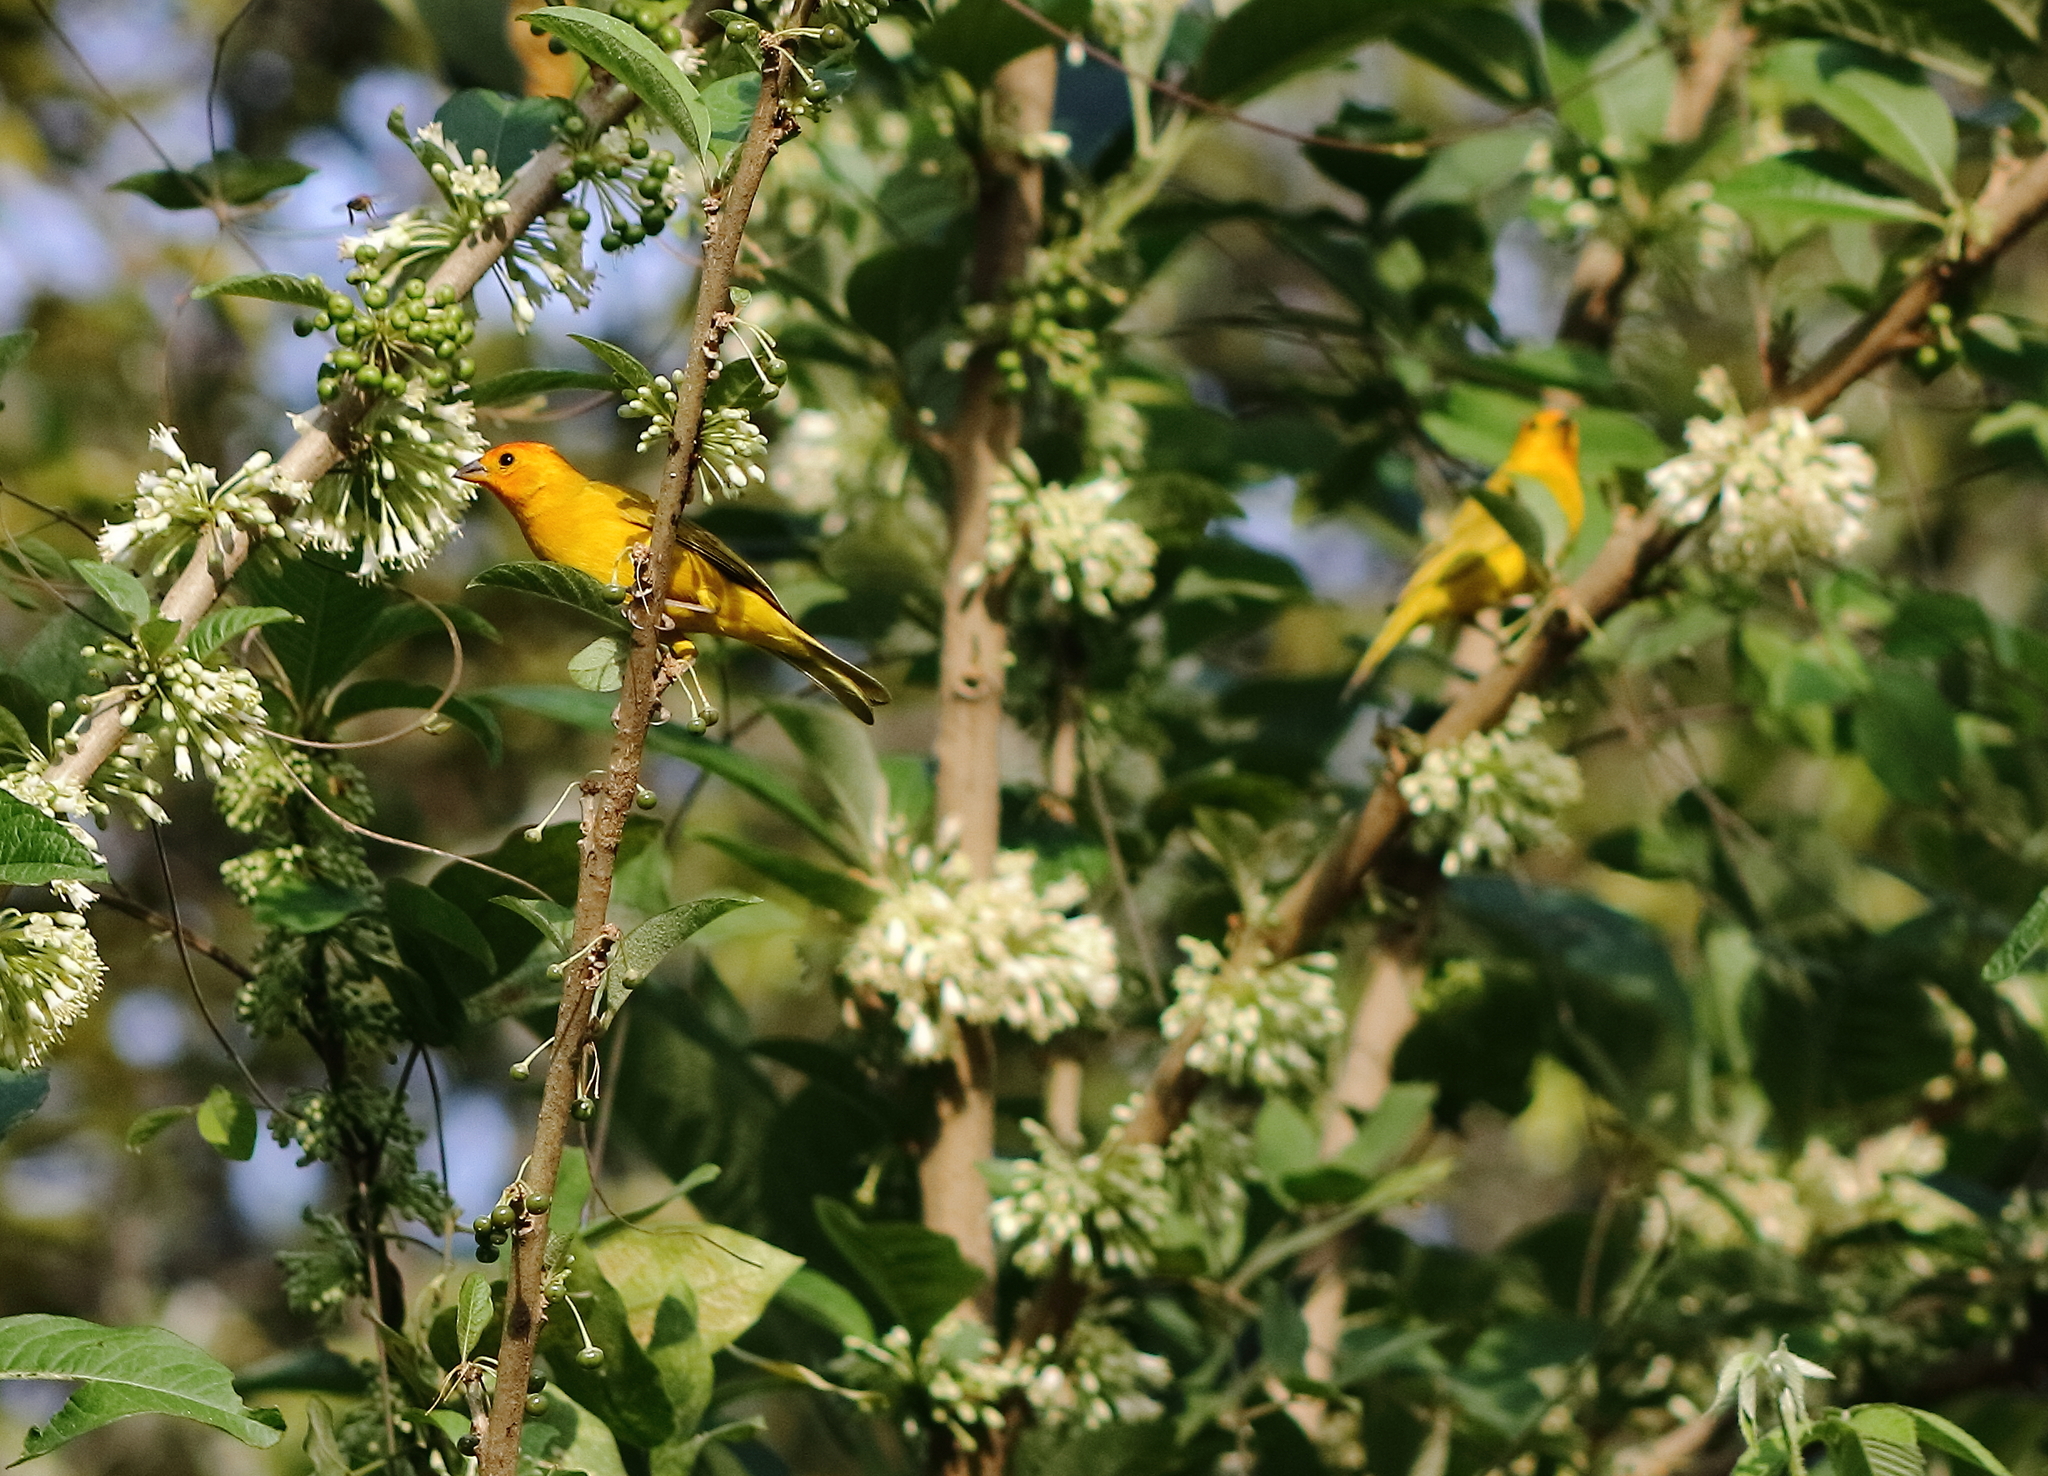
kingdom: Animalia
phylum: Chordata
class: Aves
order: Passeriformes
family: Thraupidae
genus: Sicalis
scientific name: Sicalis flaveola
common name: Saffron finch
